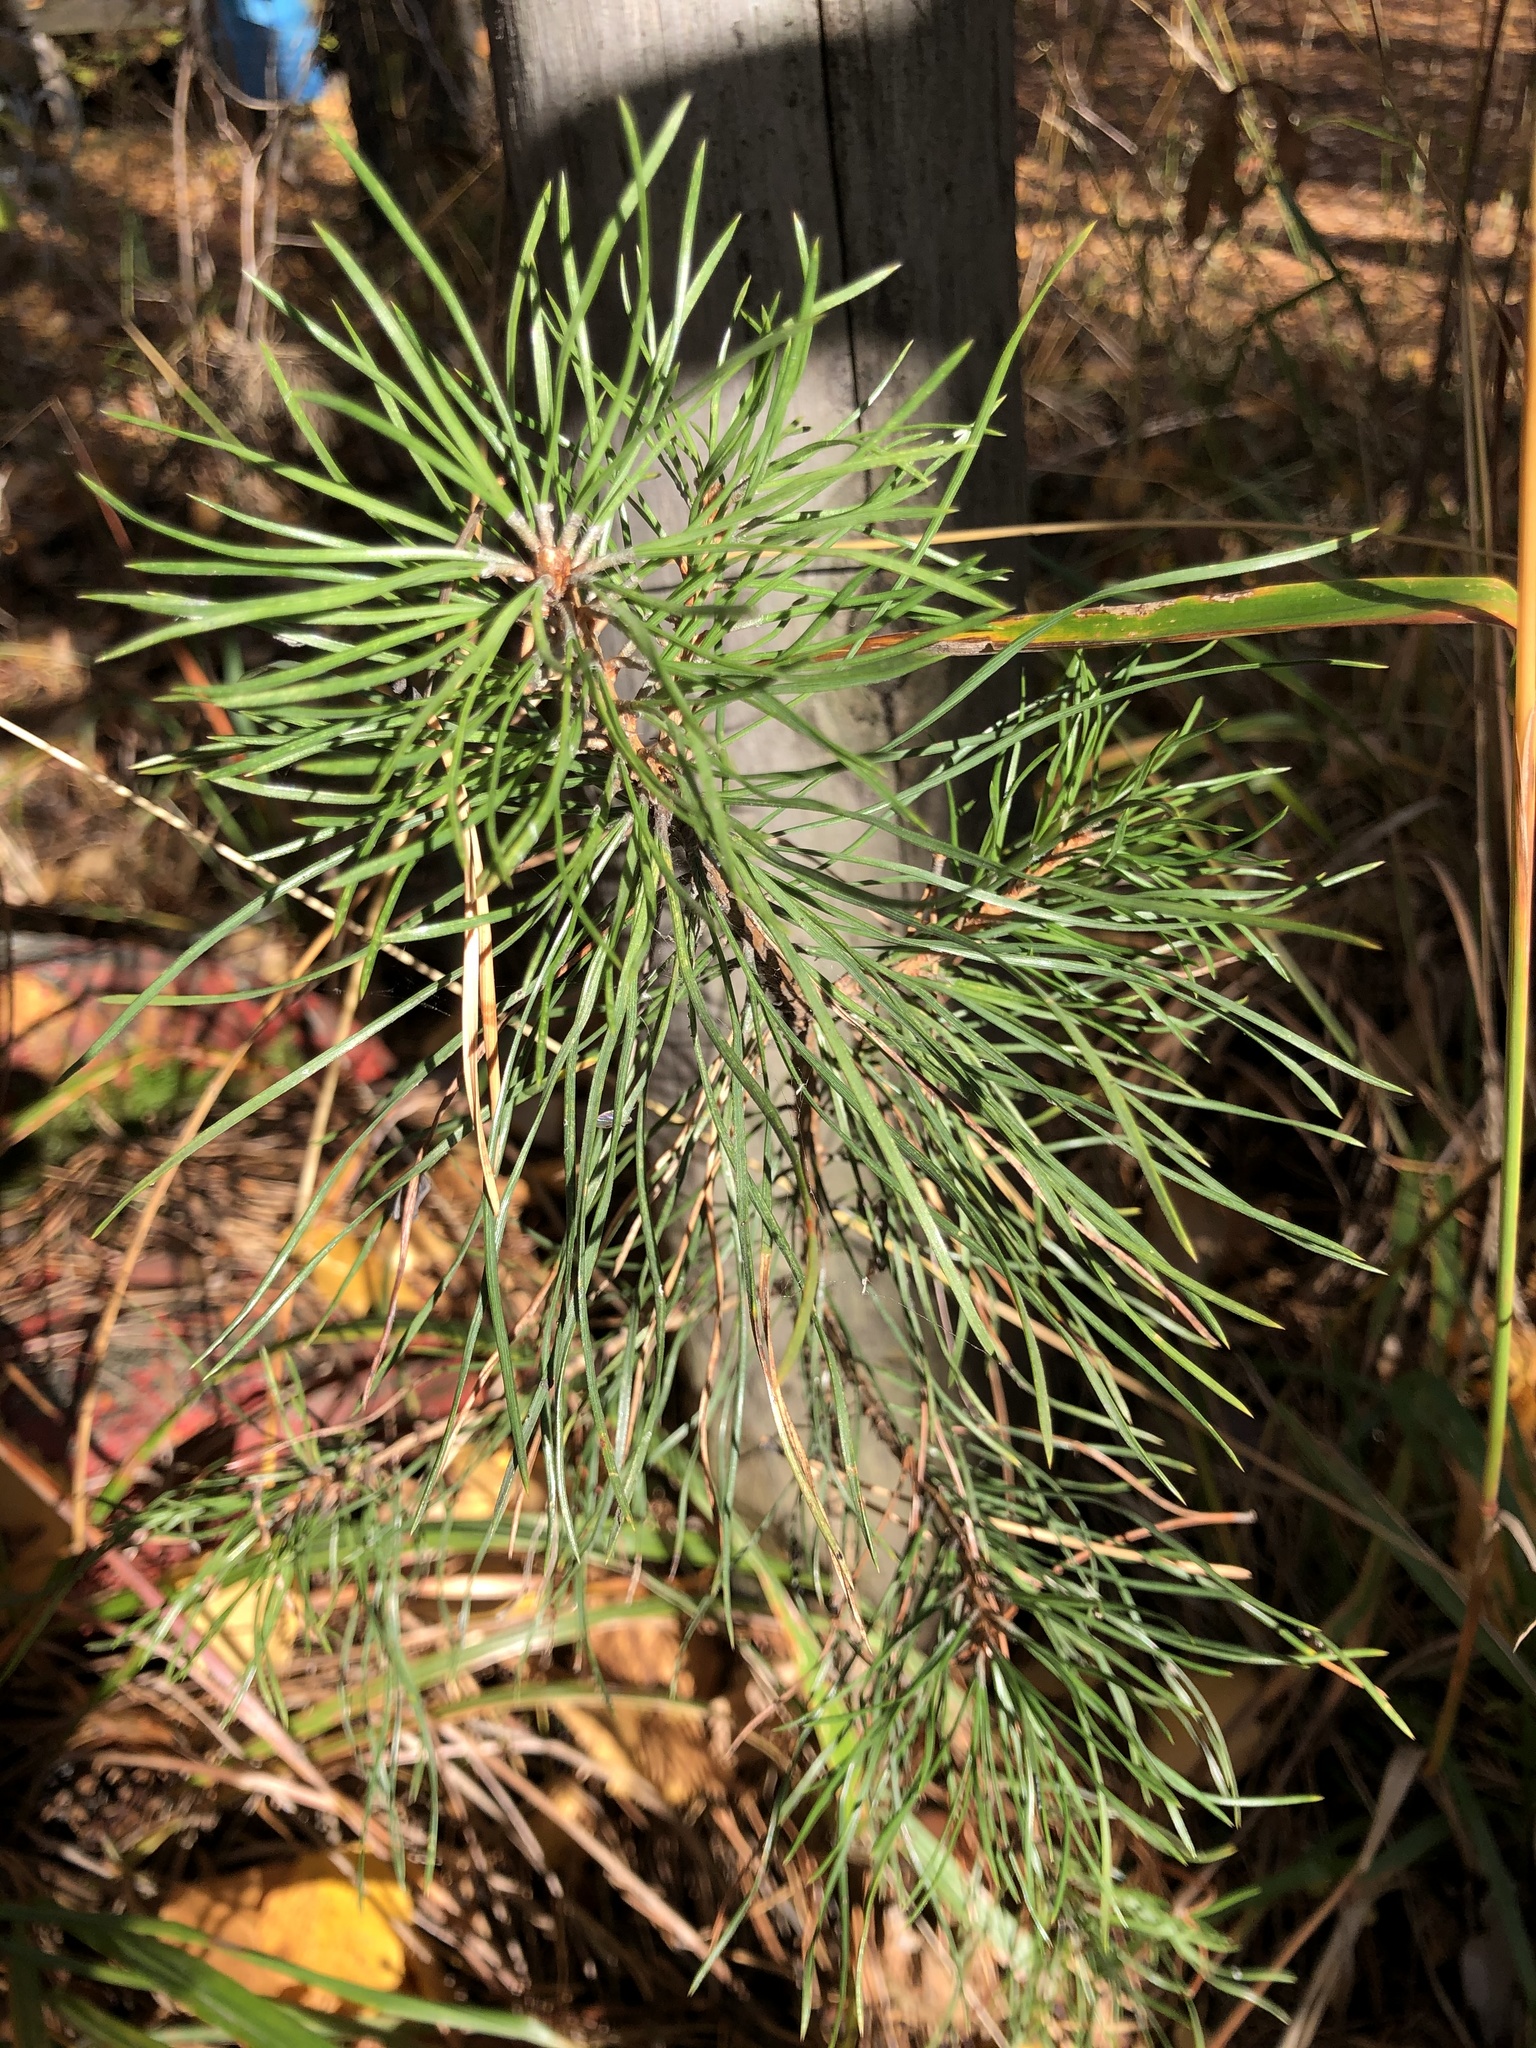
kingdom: Plantae
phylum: Tracheophyta
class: Pinopsida
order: Pinales
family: Pinaceae
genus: Pinus
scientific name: Pinus sylvestris
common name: Scots pine
